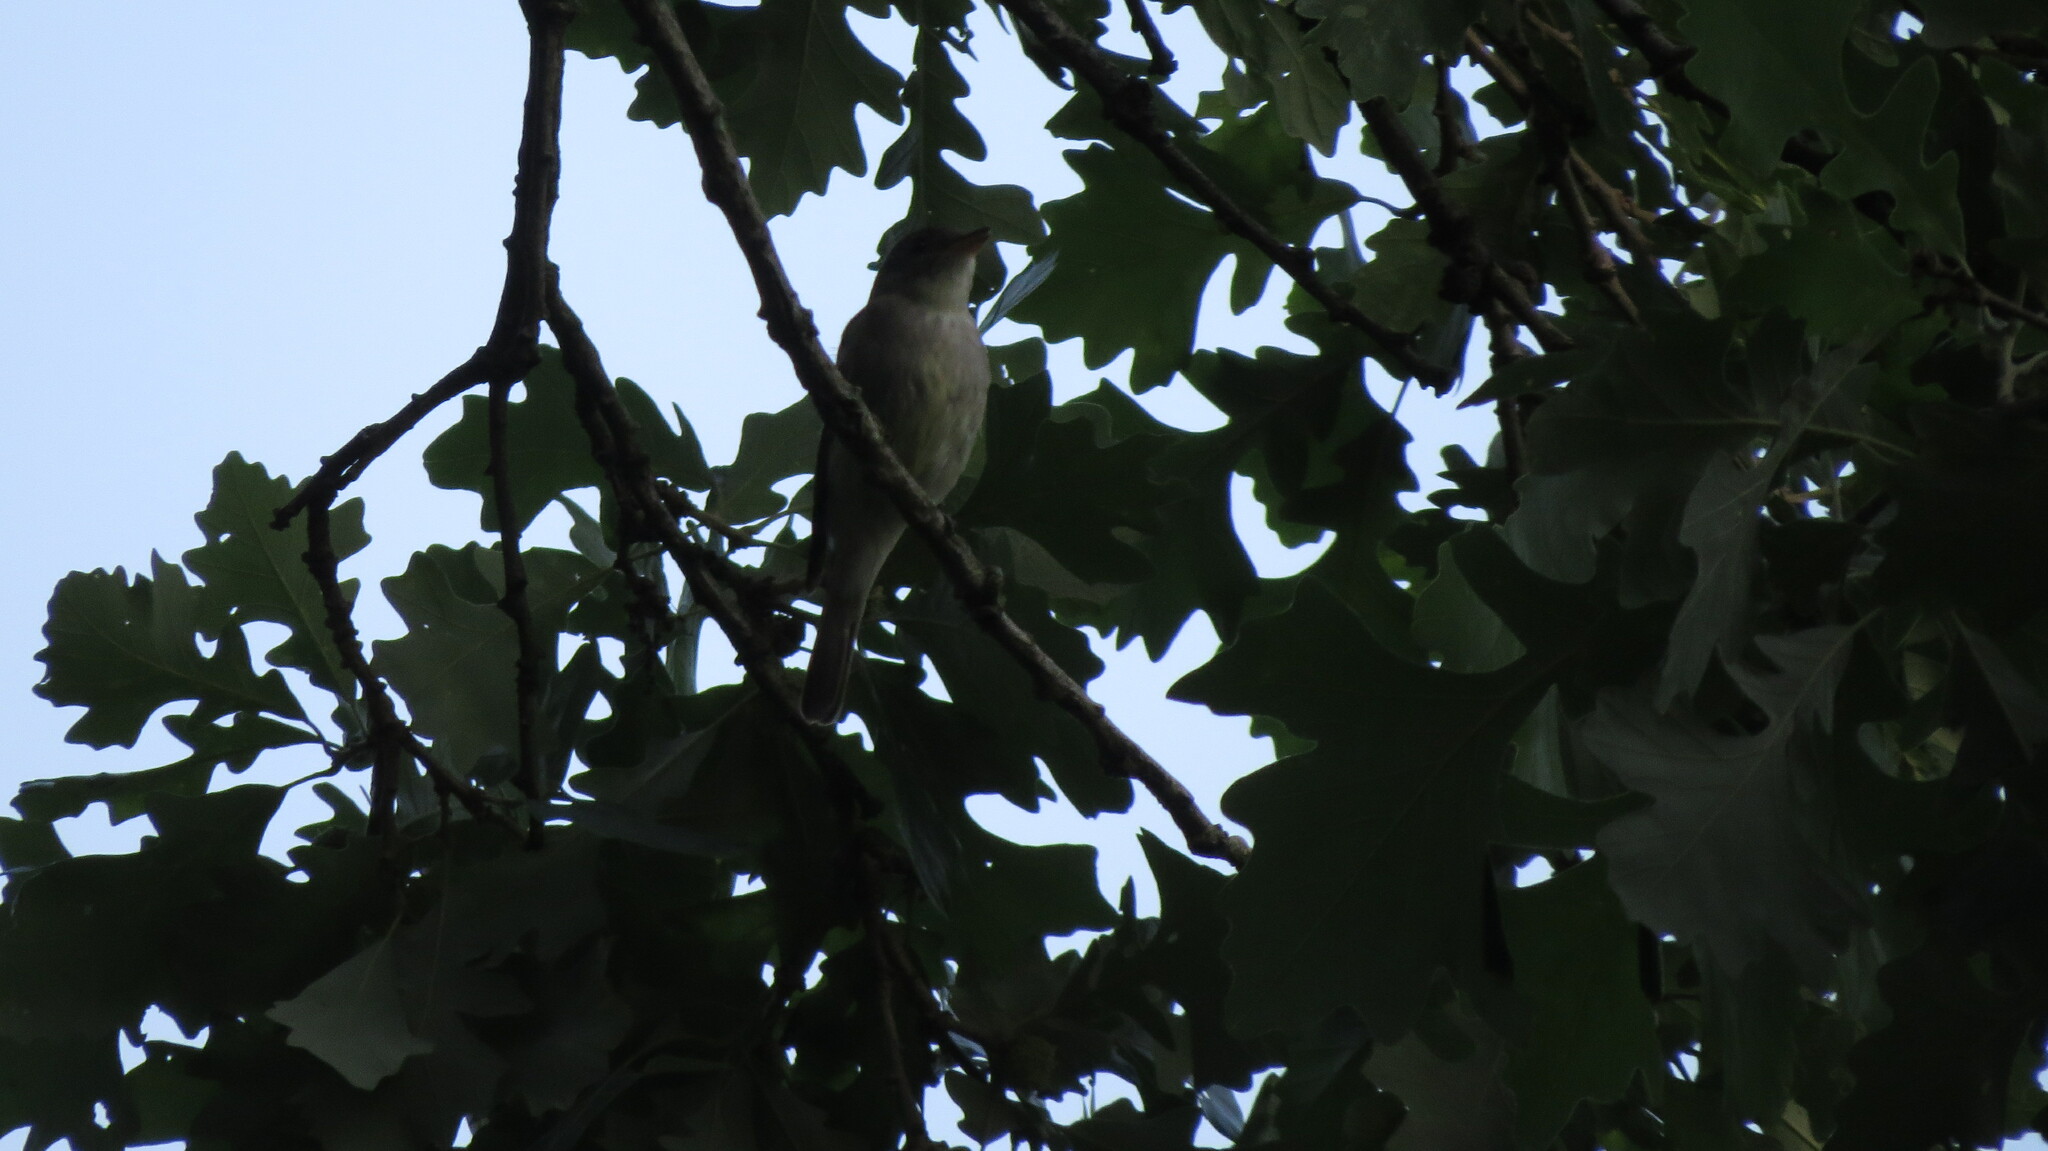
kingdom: Animalia
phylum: Chordata
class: Aves
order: Passeriformes
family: Tyrannidae
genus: Contopus
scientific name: Contopus virens
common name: Eastern wood-pewee
